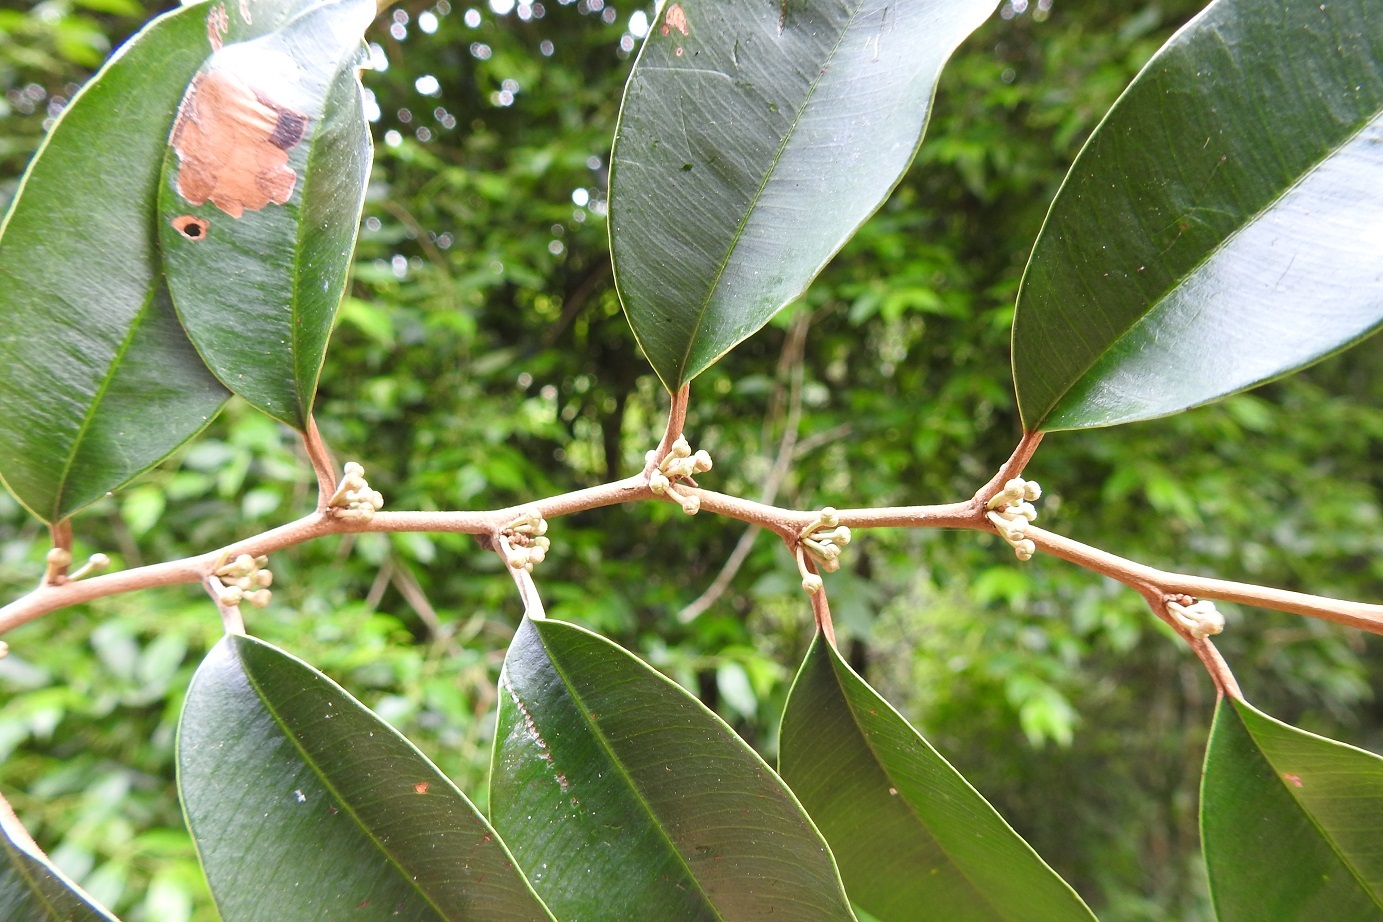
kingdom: Plantae
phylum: Tracheophyta
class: Magnoliopsida
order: Ericales
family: Sapotaceae
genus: Chrysophyllum
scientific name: Chrysophyllum mexicanum
